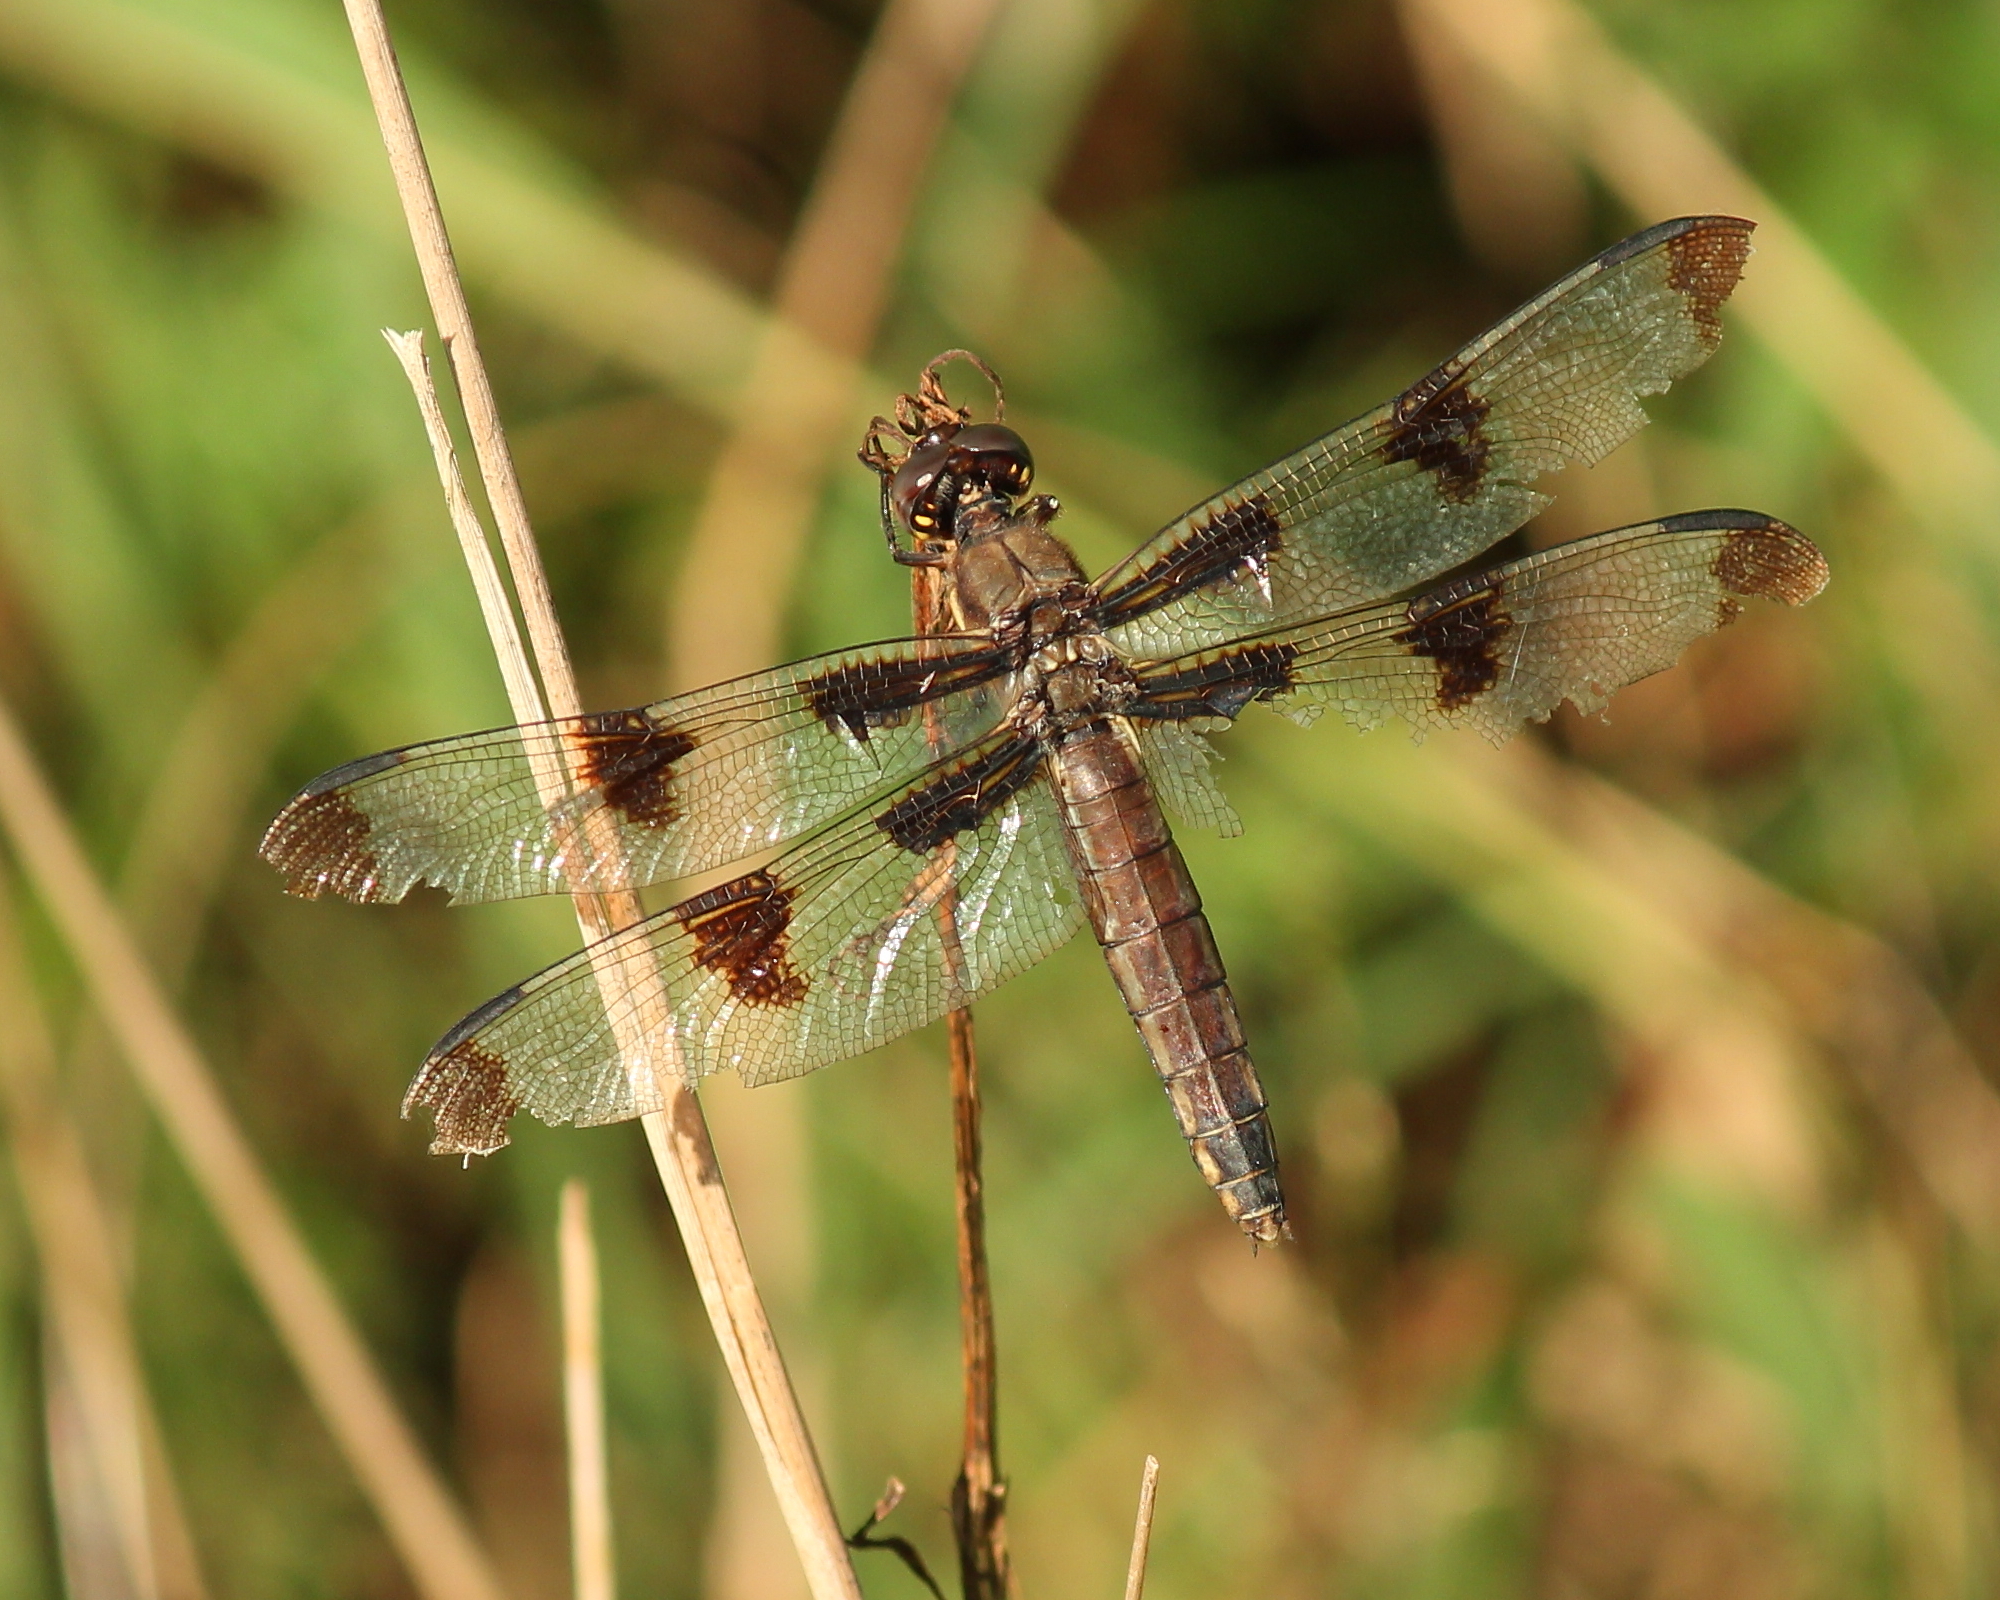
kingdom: Animalia
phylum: Arthropoda
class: Insecta
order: Odonata
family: Libellulidae
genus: Libellula
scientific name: Libellula pulchella
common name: Twelve-spotted skimmer
